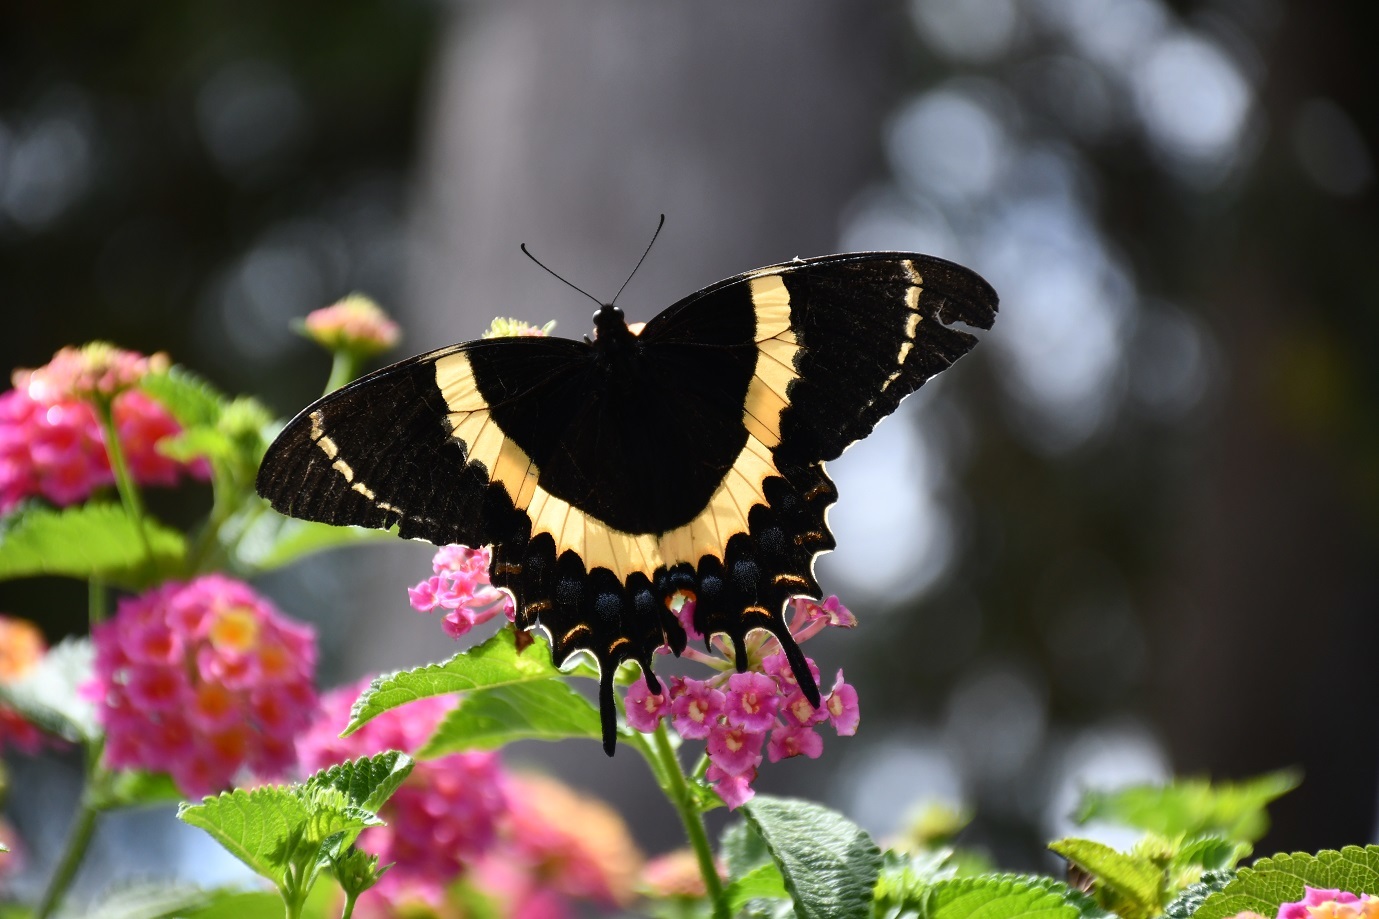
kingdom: Animalia
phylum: Arthropoda
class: Insecta
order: Lepidoptera
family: Papilionidae
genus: Papilio
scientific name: Papilio garamas
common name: Magnificent swallowtail
